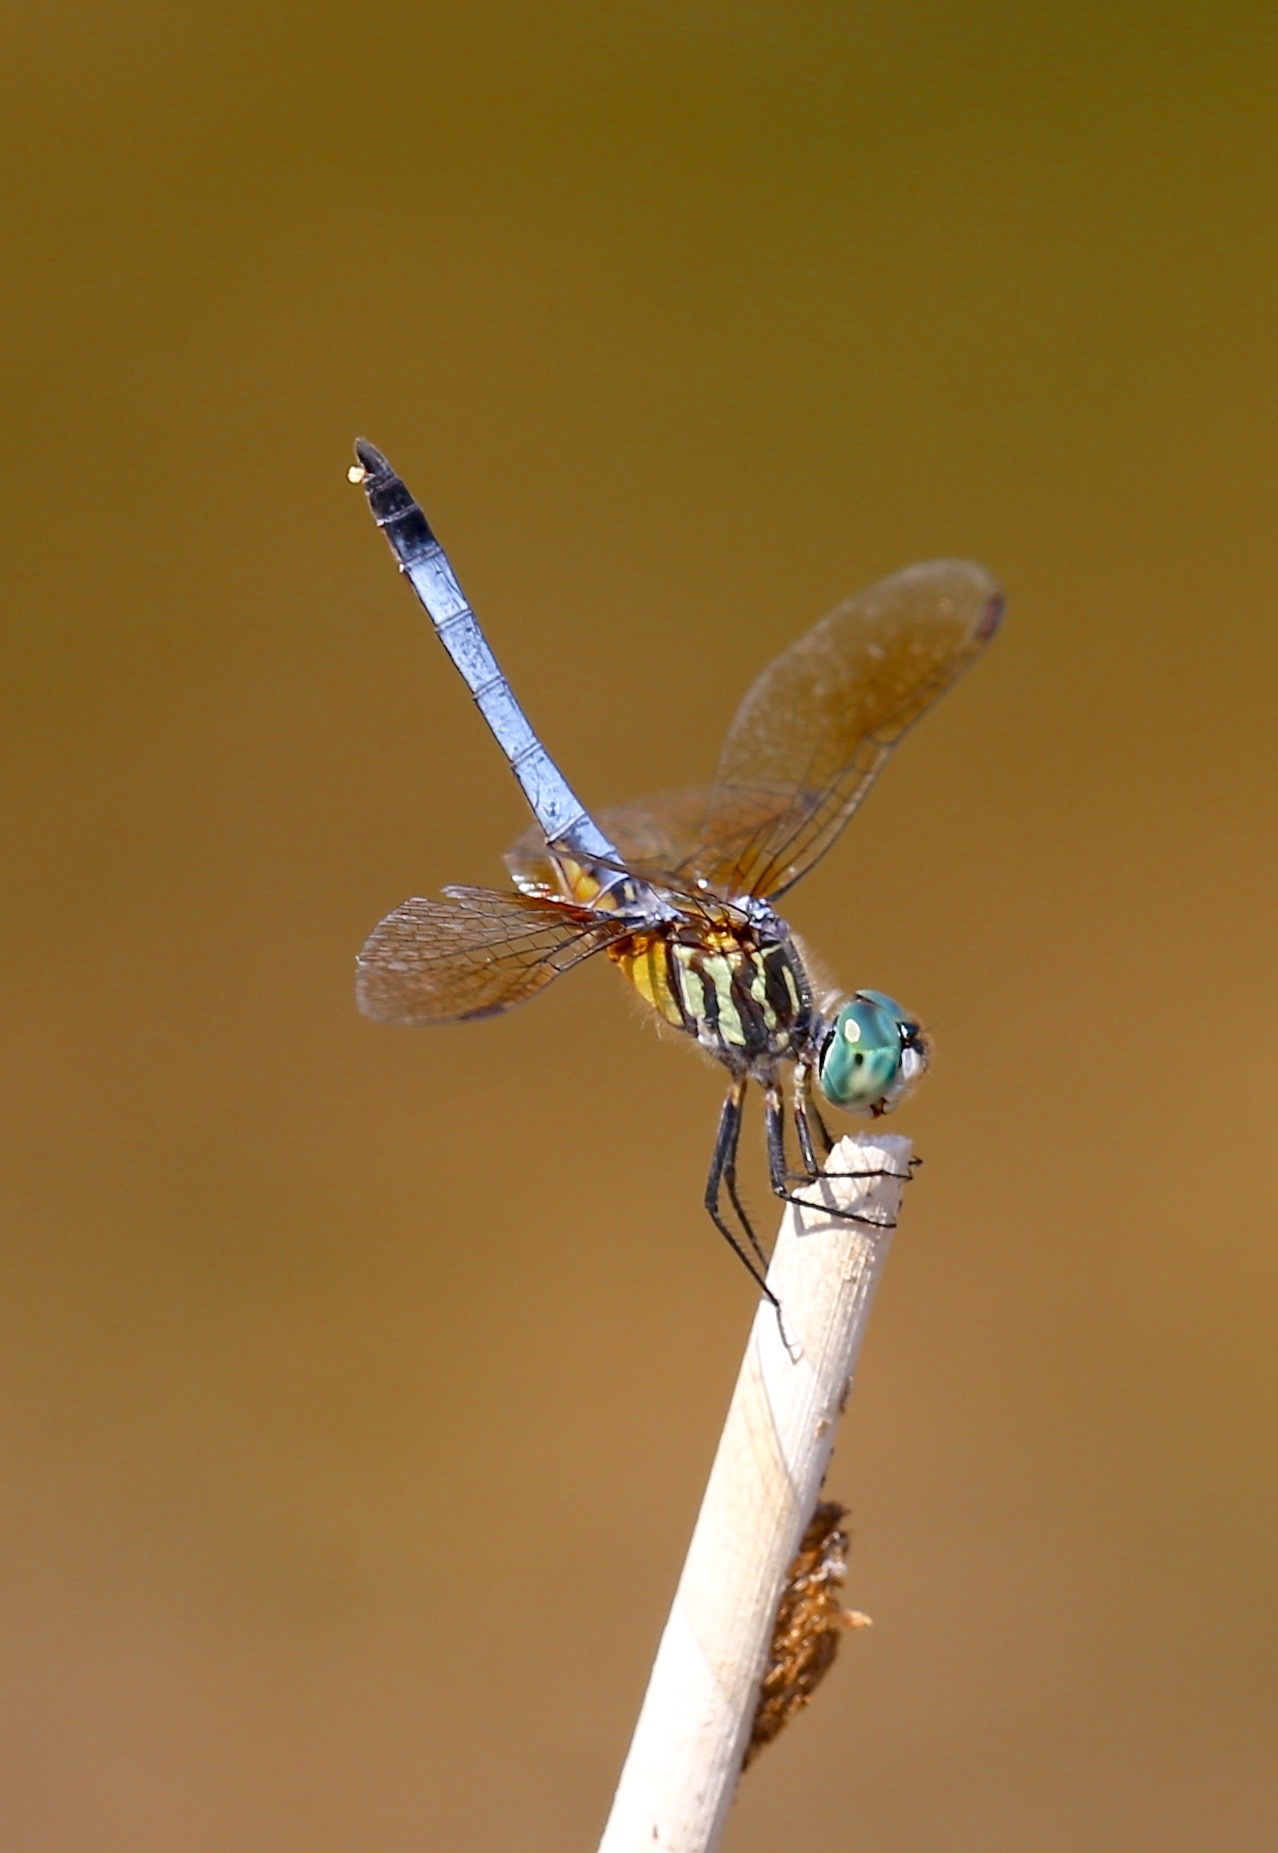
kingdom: Animalia
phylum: Arthropoda
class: Insecta
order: Odonata
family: Libellulidae
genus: Pachydiplax
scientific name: Pachydiplax longipennis
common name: Blue dasher
